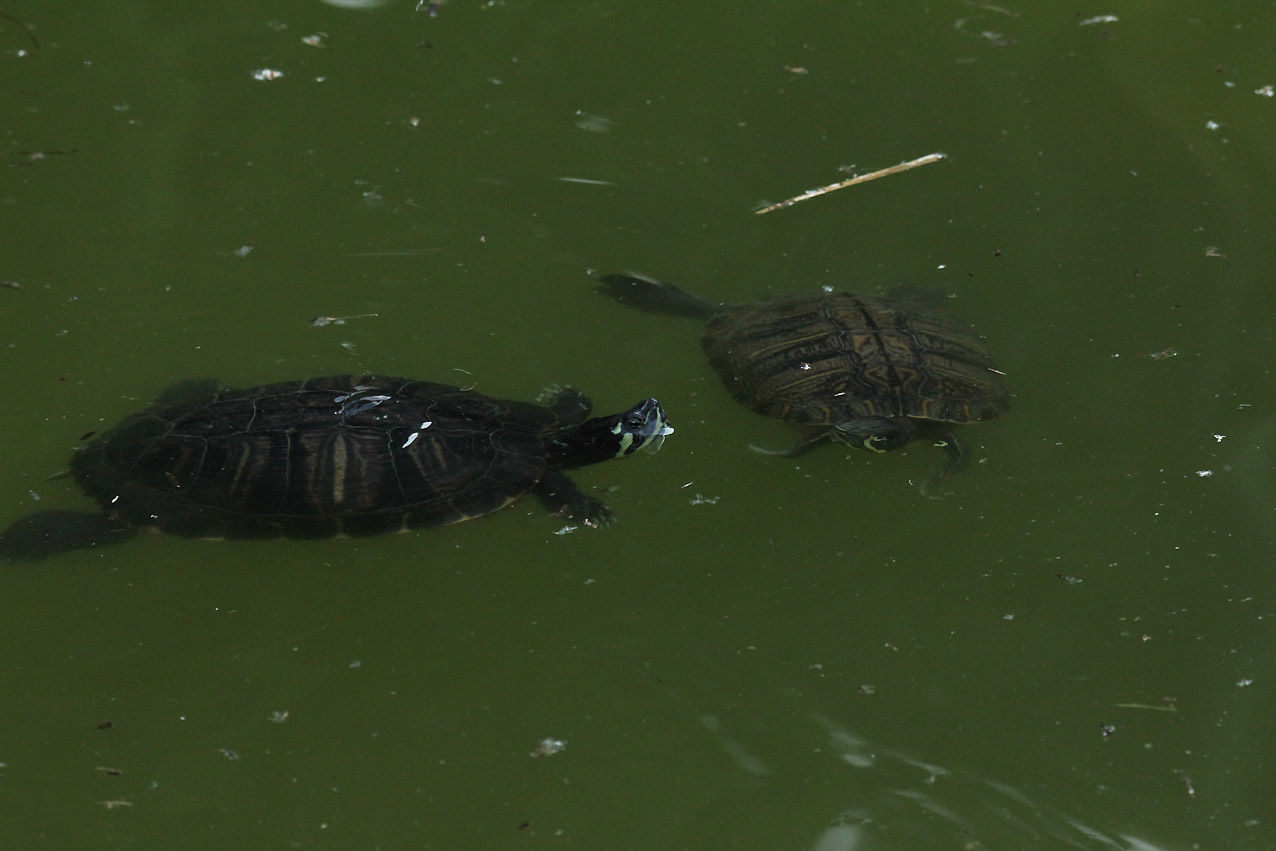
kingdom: Animalia
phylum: Chordata
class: Testudines
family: Emydidae
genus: Trachemys
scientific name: Trachemys scripta
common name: Slider
